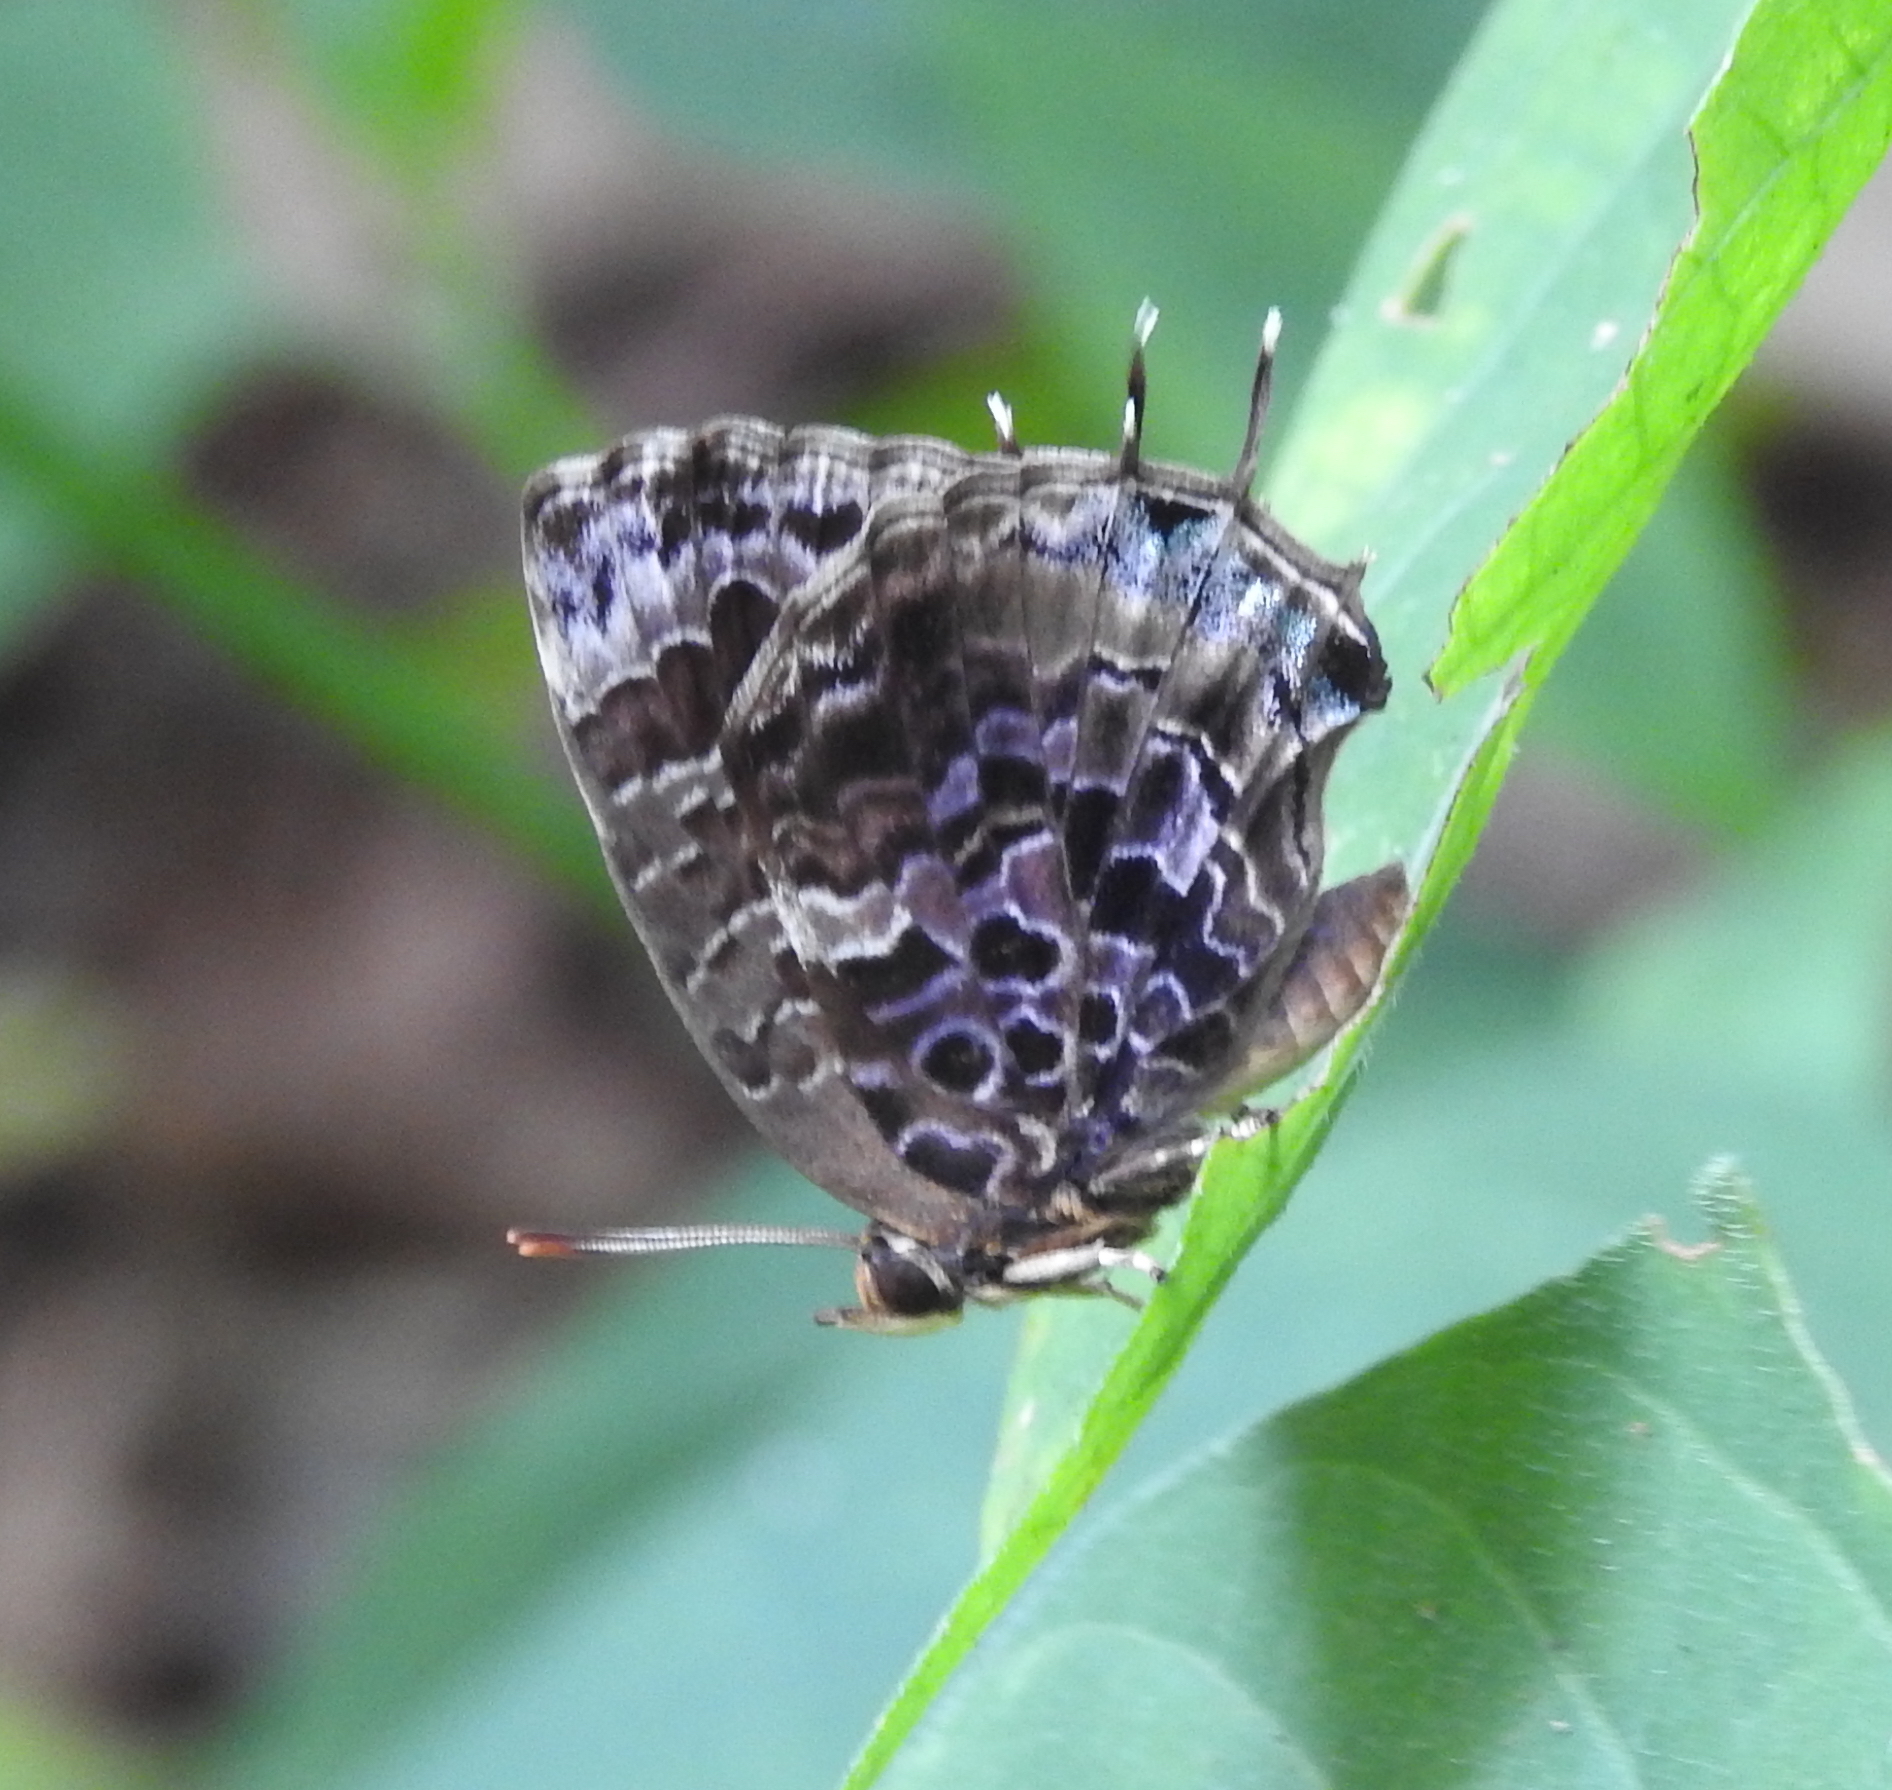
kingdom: Animalia
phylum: Arthropoda
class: Insecta
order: Lepidoptera
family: Lycaenidae
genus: Arhopala
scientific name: Arhopala abseus
